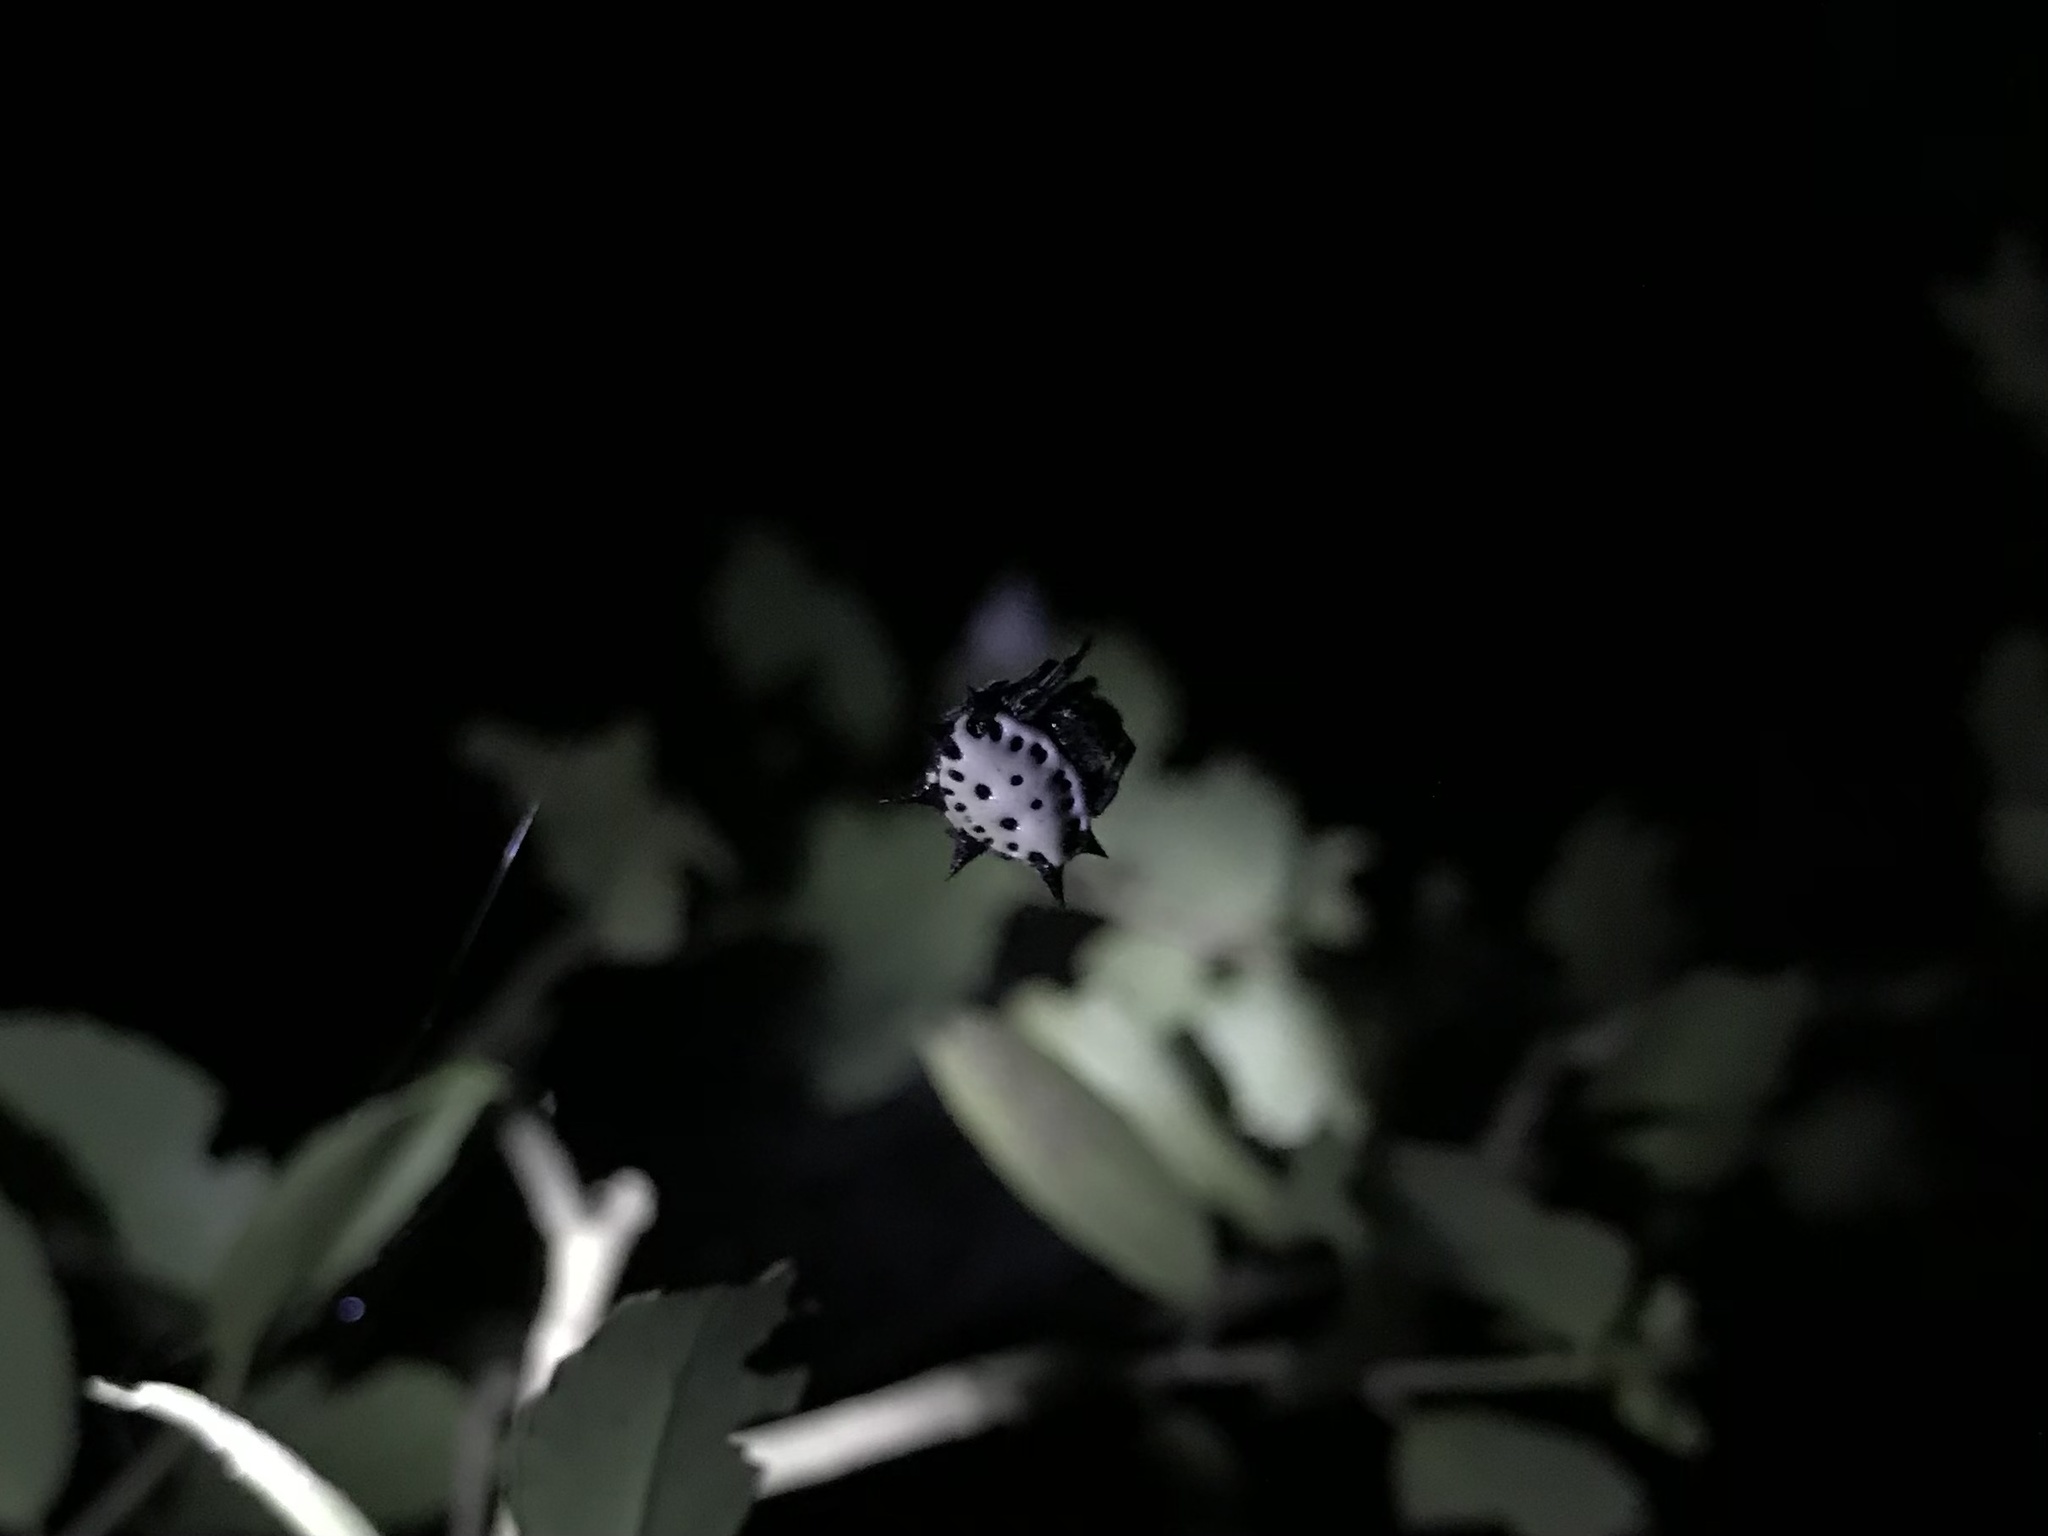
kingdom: Animalia
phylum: Arthropoda
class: Arachnida
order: Araneae
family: Araneidae
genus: Gasteracantha
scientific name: Gasteracantha cancriformis
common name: Orb weavers
